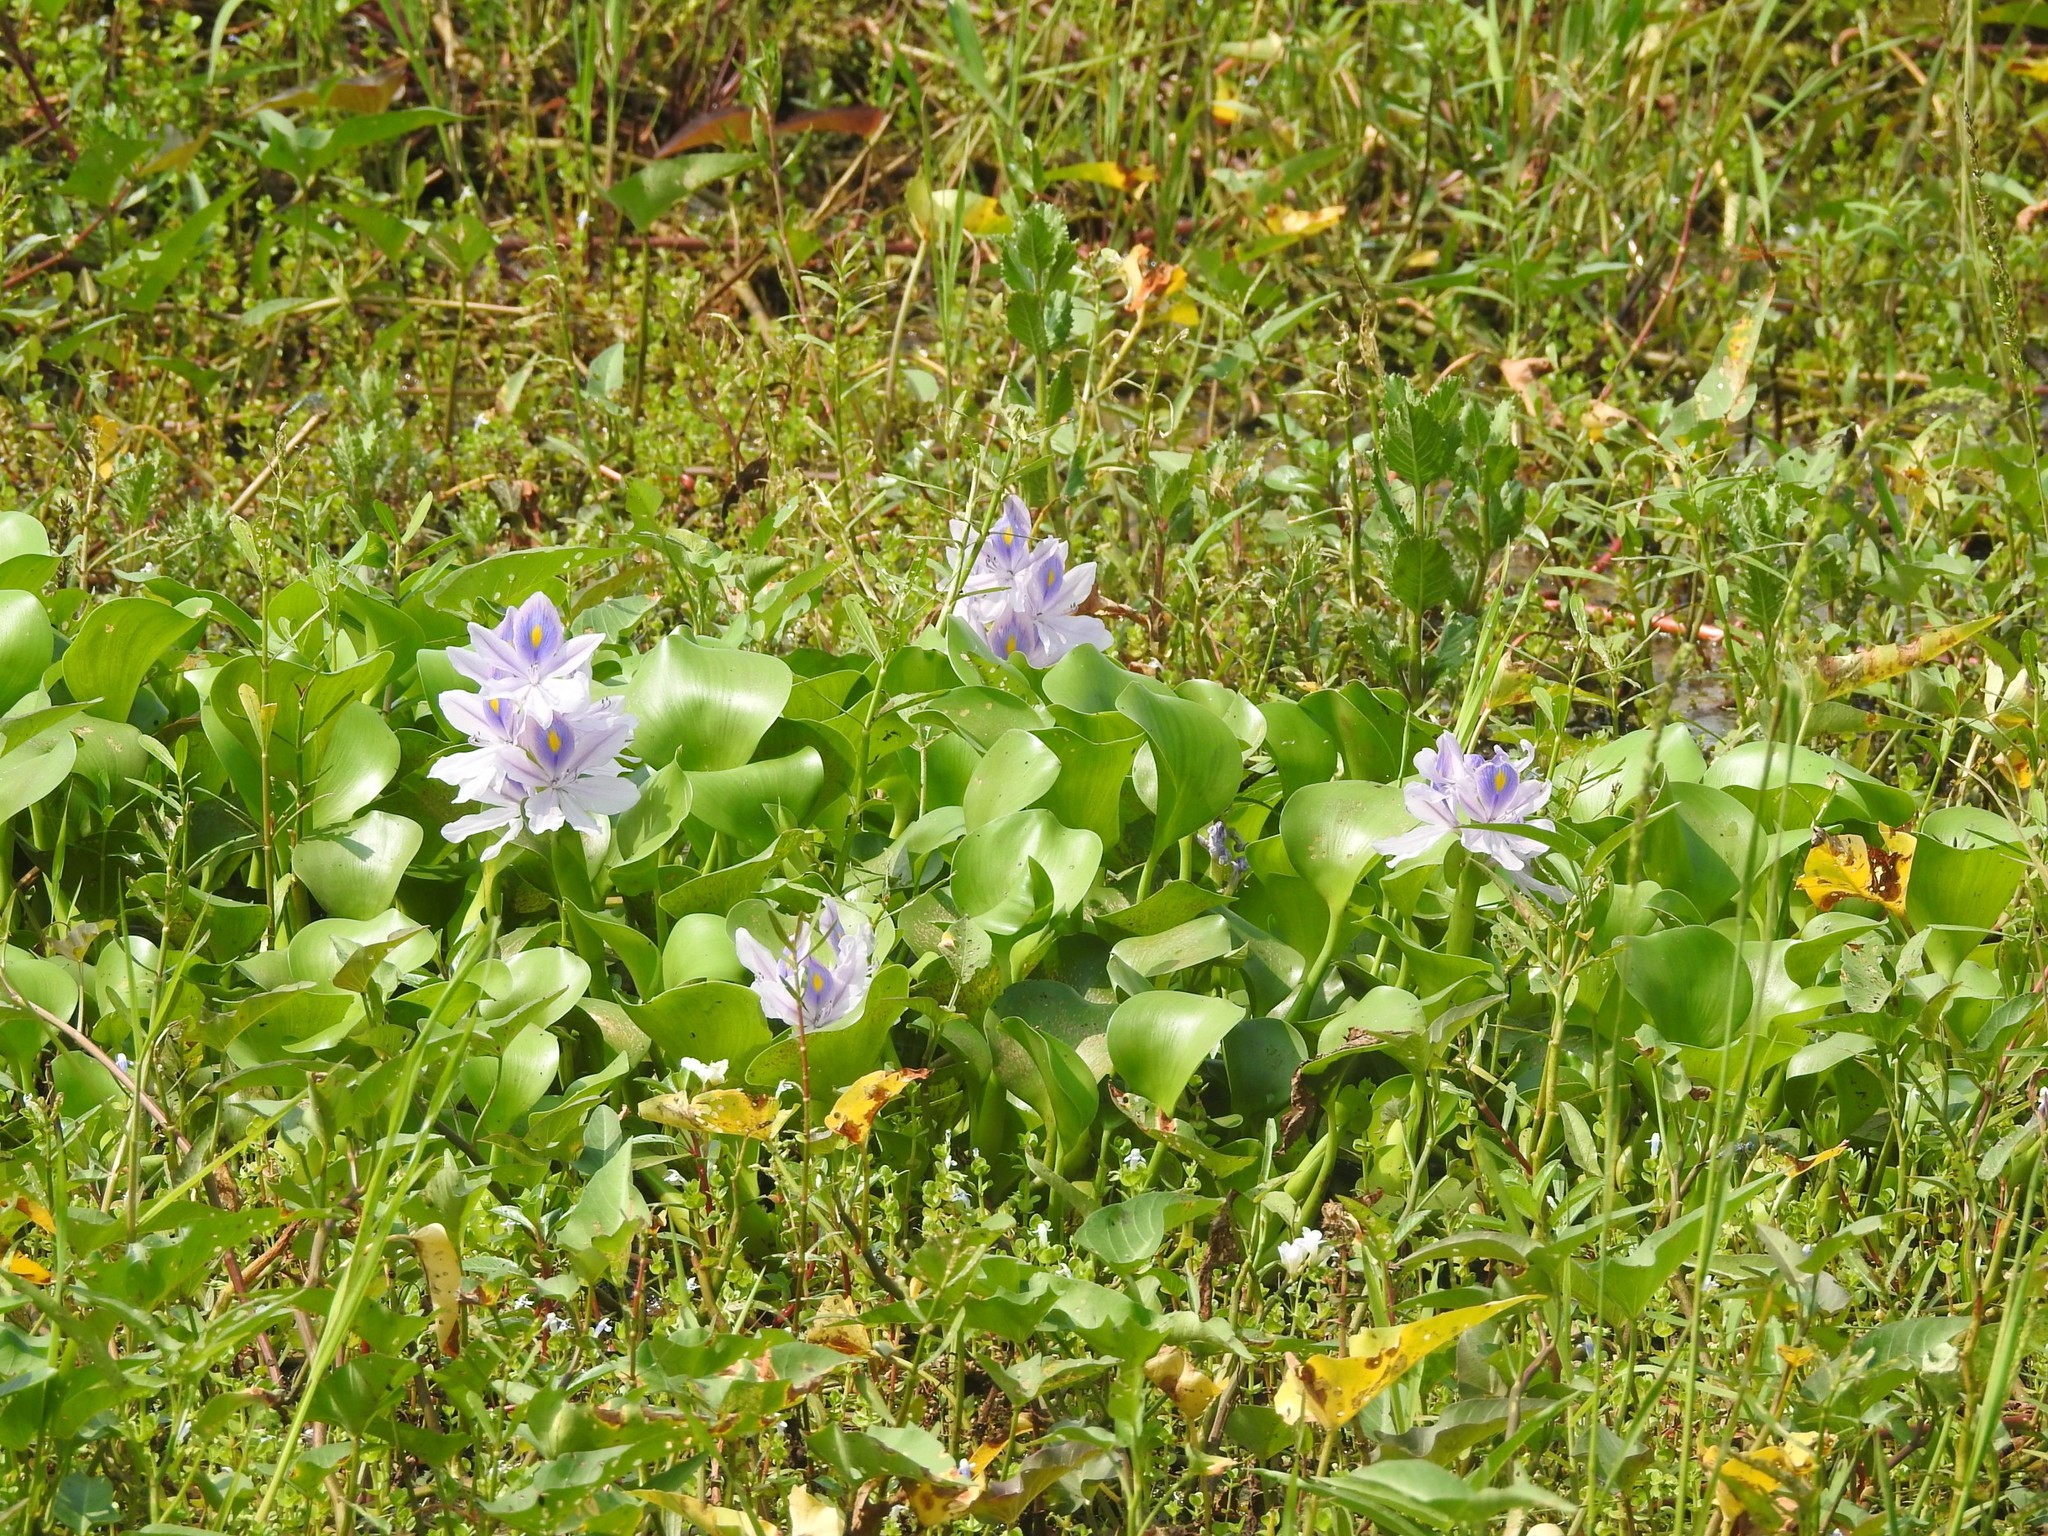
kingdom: Plantae
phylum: Tracheophyta
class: Liliopsida
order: Commelinales
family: Pontederiaceae
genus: Pontederia
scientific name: Pontederia crassipes
